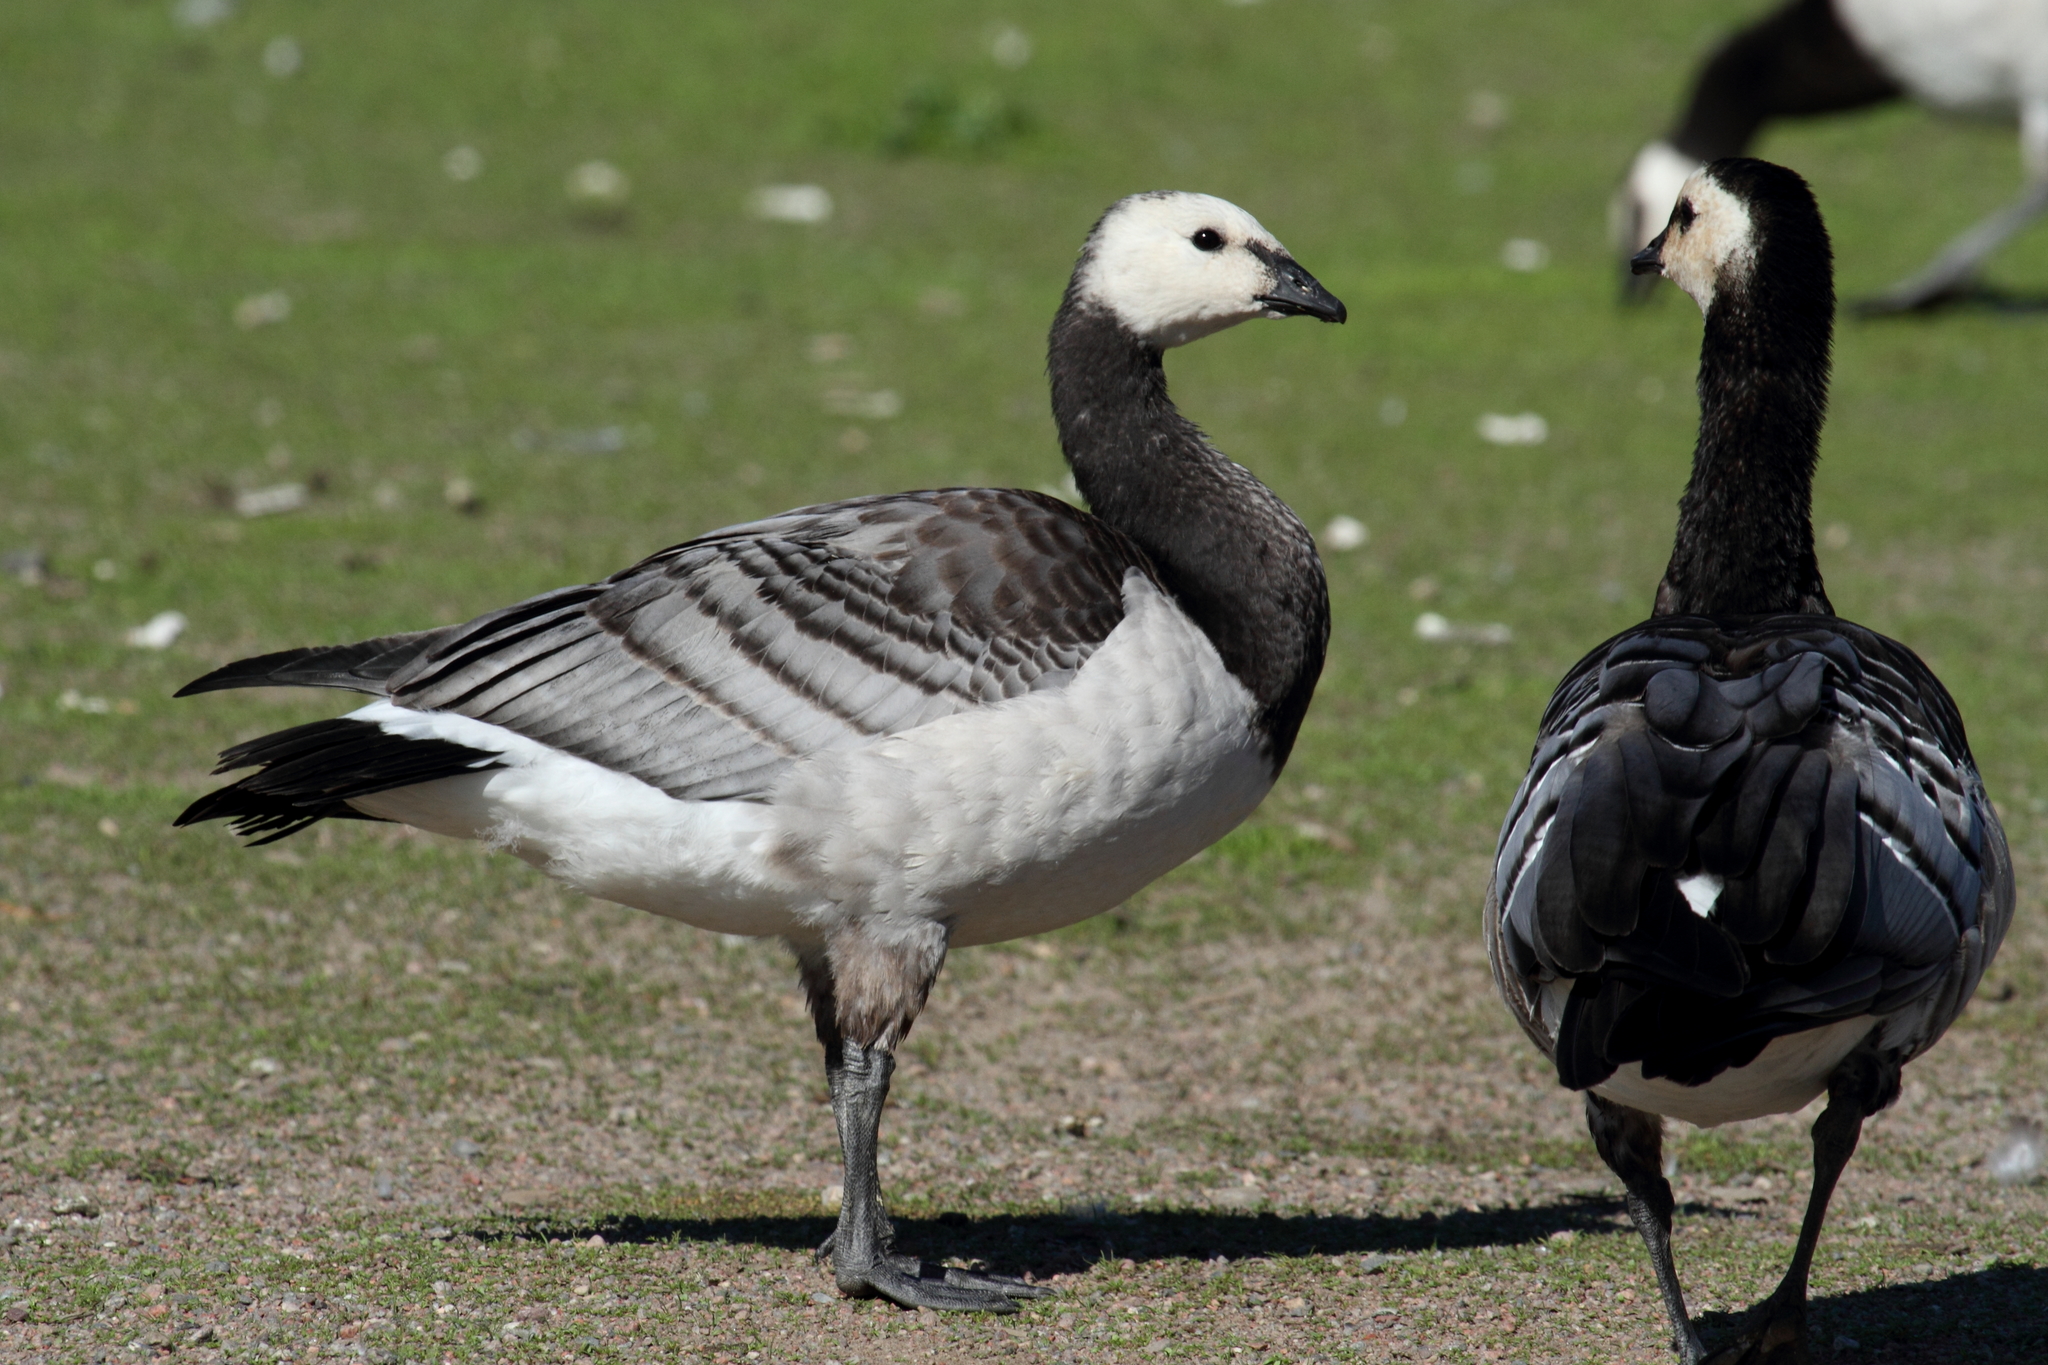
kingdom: Animalia
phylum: Chordata
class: Aves
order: Anseriformes
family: Anatidae
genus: Branta
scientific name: Branta leucopsis
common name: Barnacle goose
